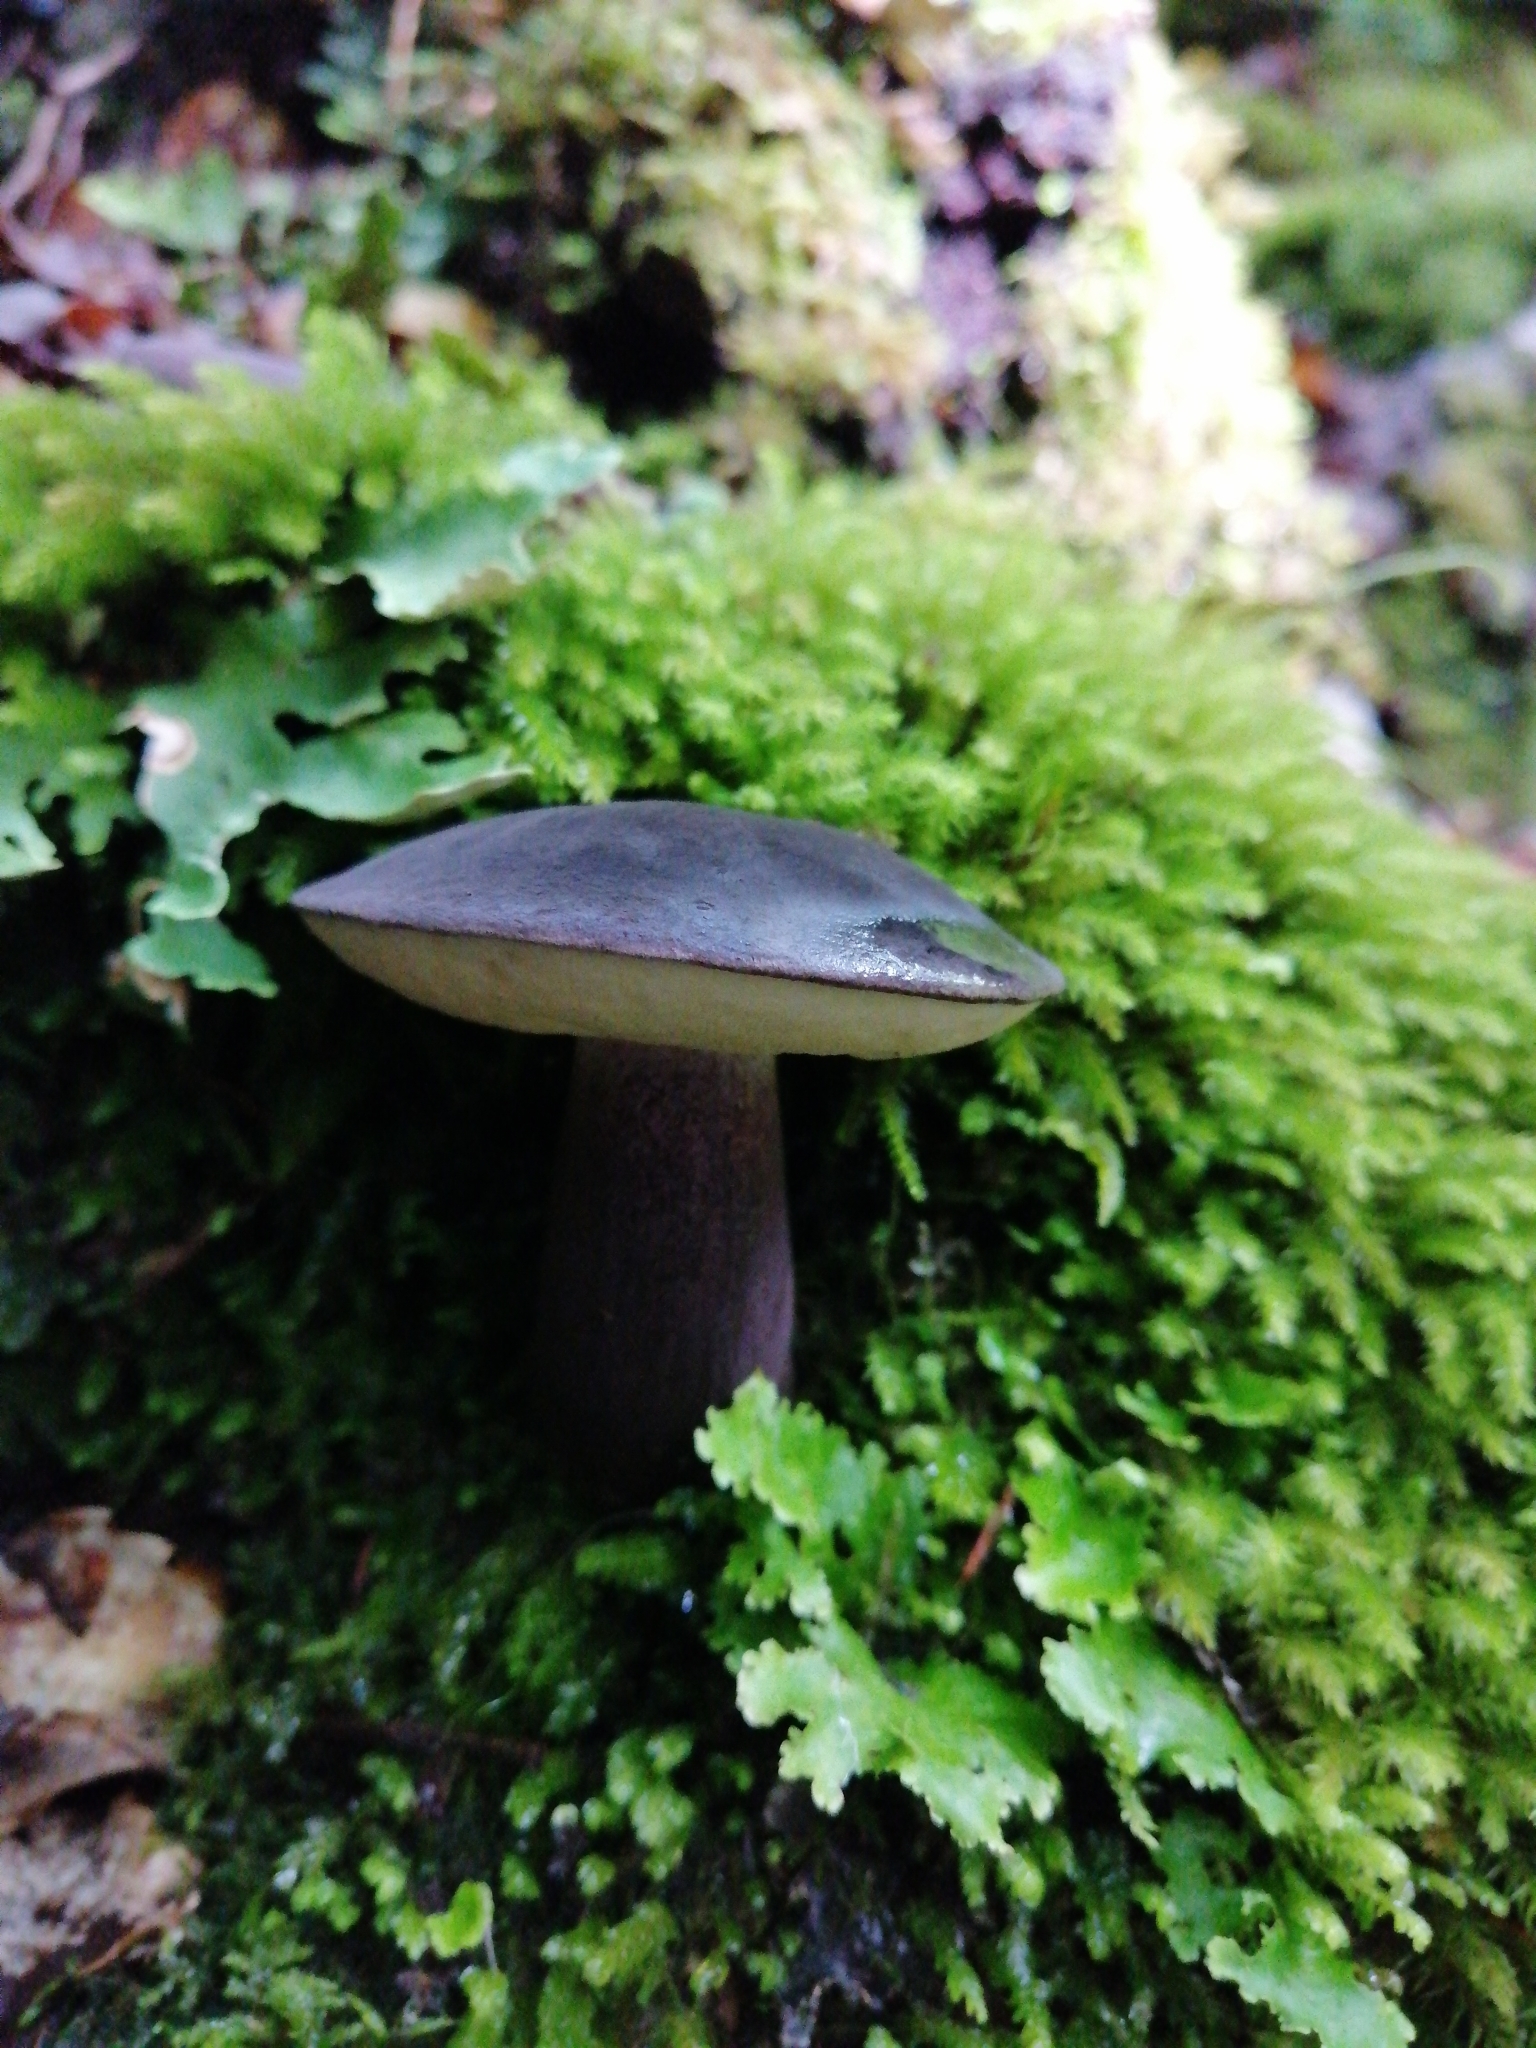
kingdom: Fungi
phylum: Basidiomycota
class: Agaricomycetes
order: Boletales
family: Boletaceae
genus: Porphyrellus
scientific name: Porphyrellus formosus
